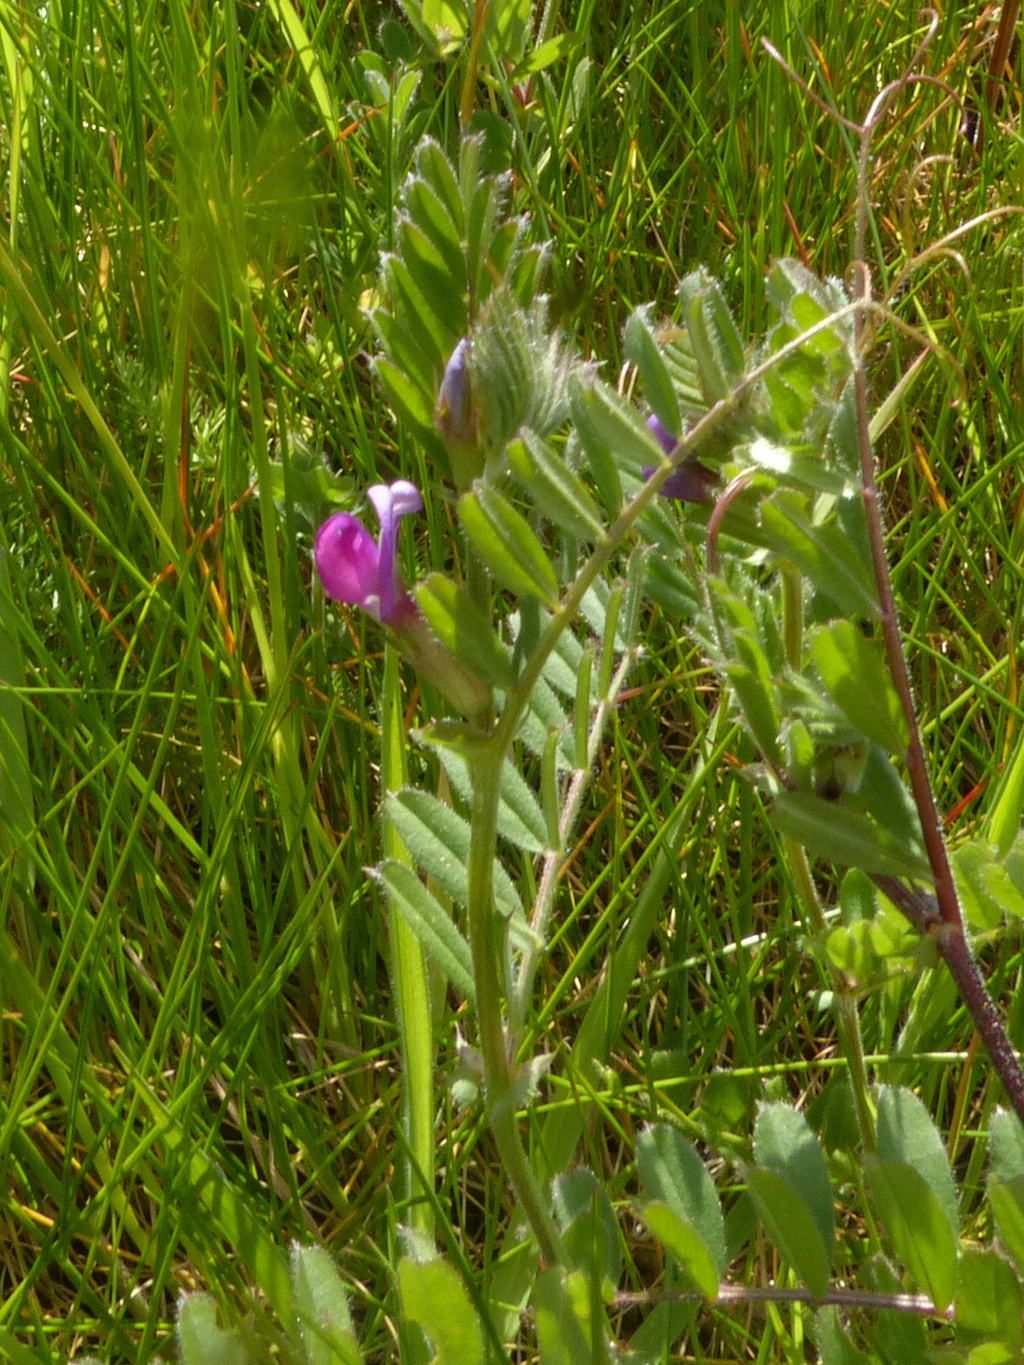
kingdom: Plantae
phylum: Tracheophyta
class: Magnoliopsida
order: Fabales
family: Fabaceae
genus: Vicia
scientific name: Vicia sativa
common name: Garden vetch
